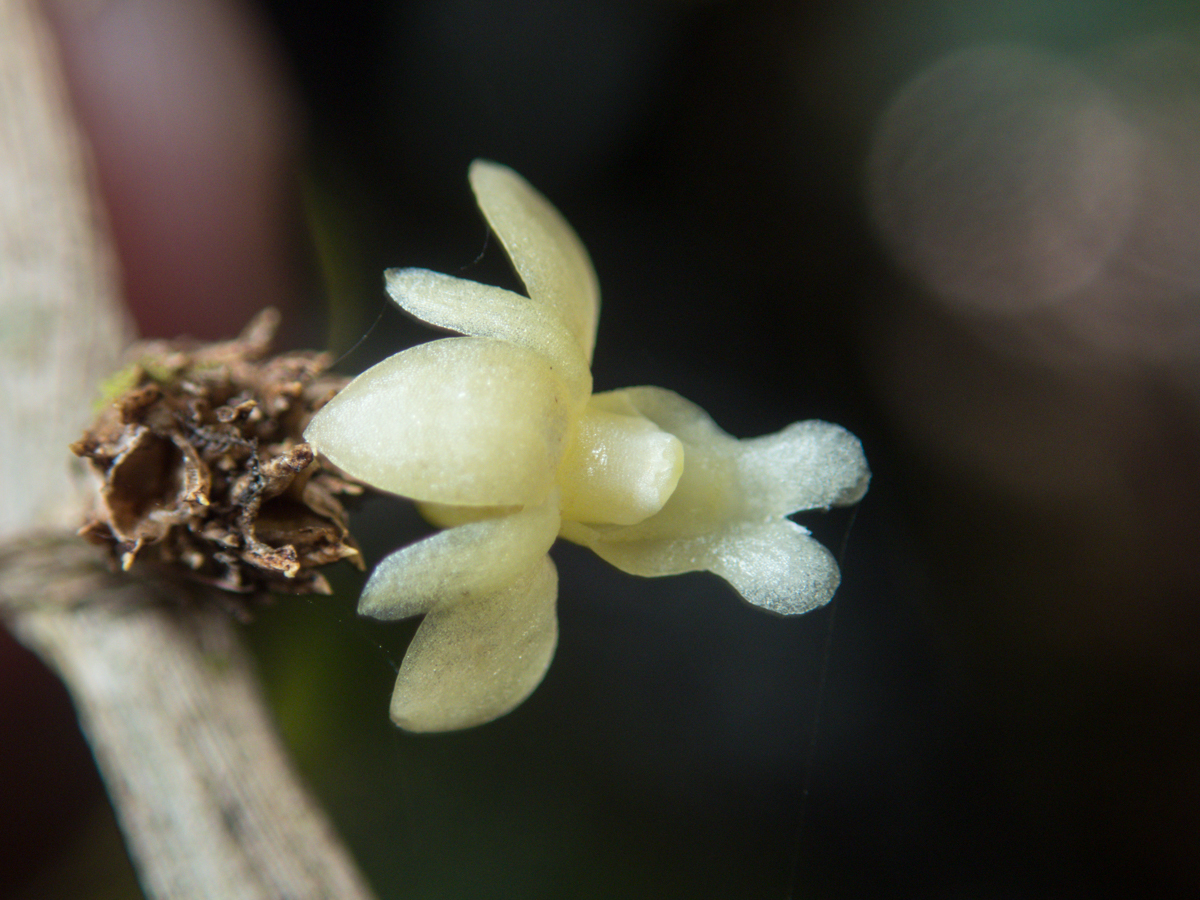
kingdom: Plantae
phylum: Tracheophyta
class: Liliopsida
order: Asparagales
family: Orchidaceae
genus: Dendrobium
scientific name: Dendrobium aloifolium
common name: Aloe-like dendrobium
